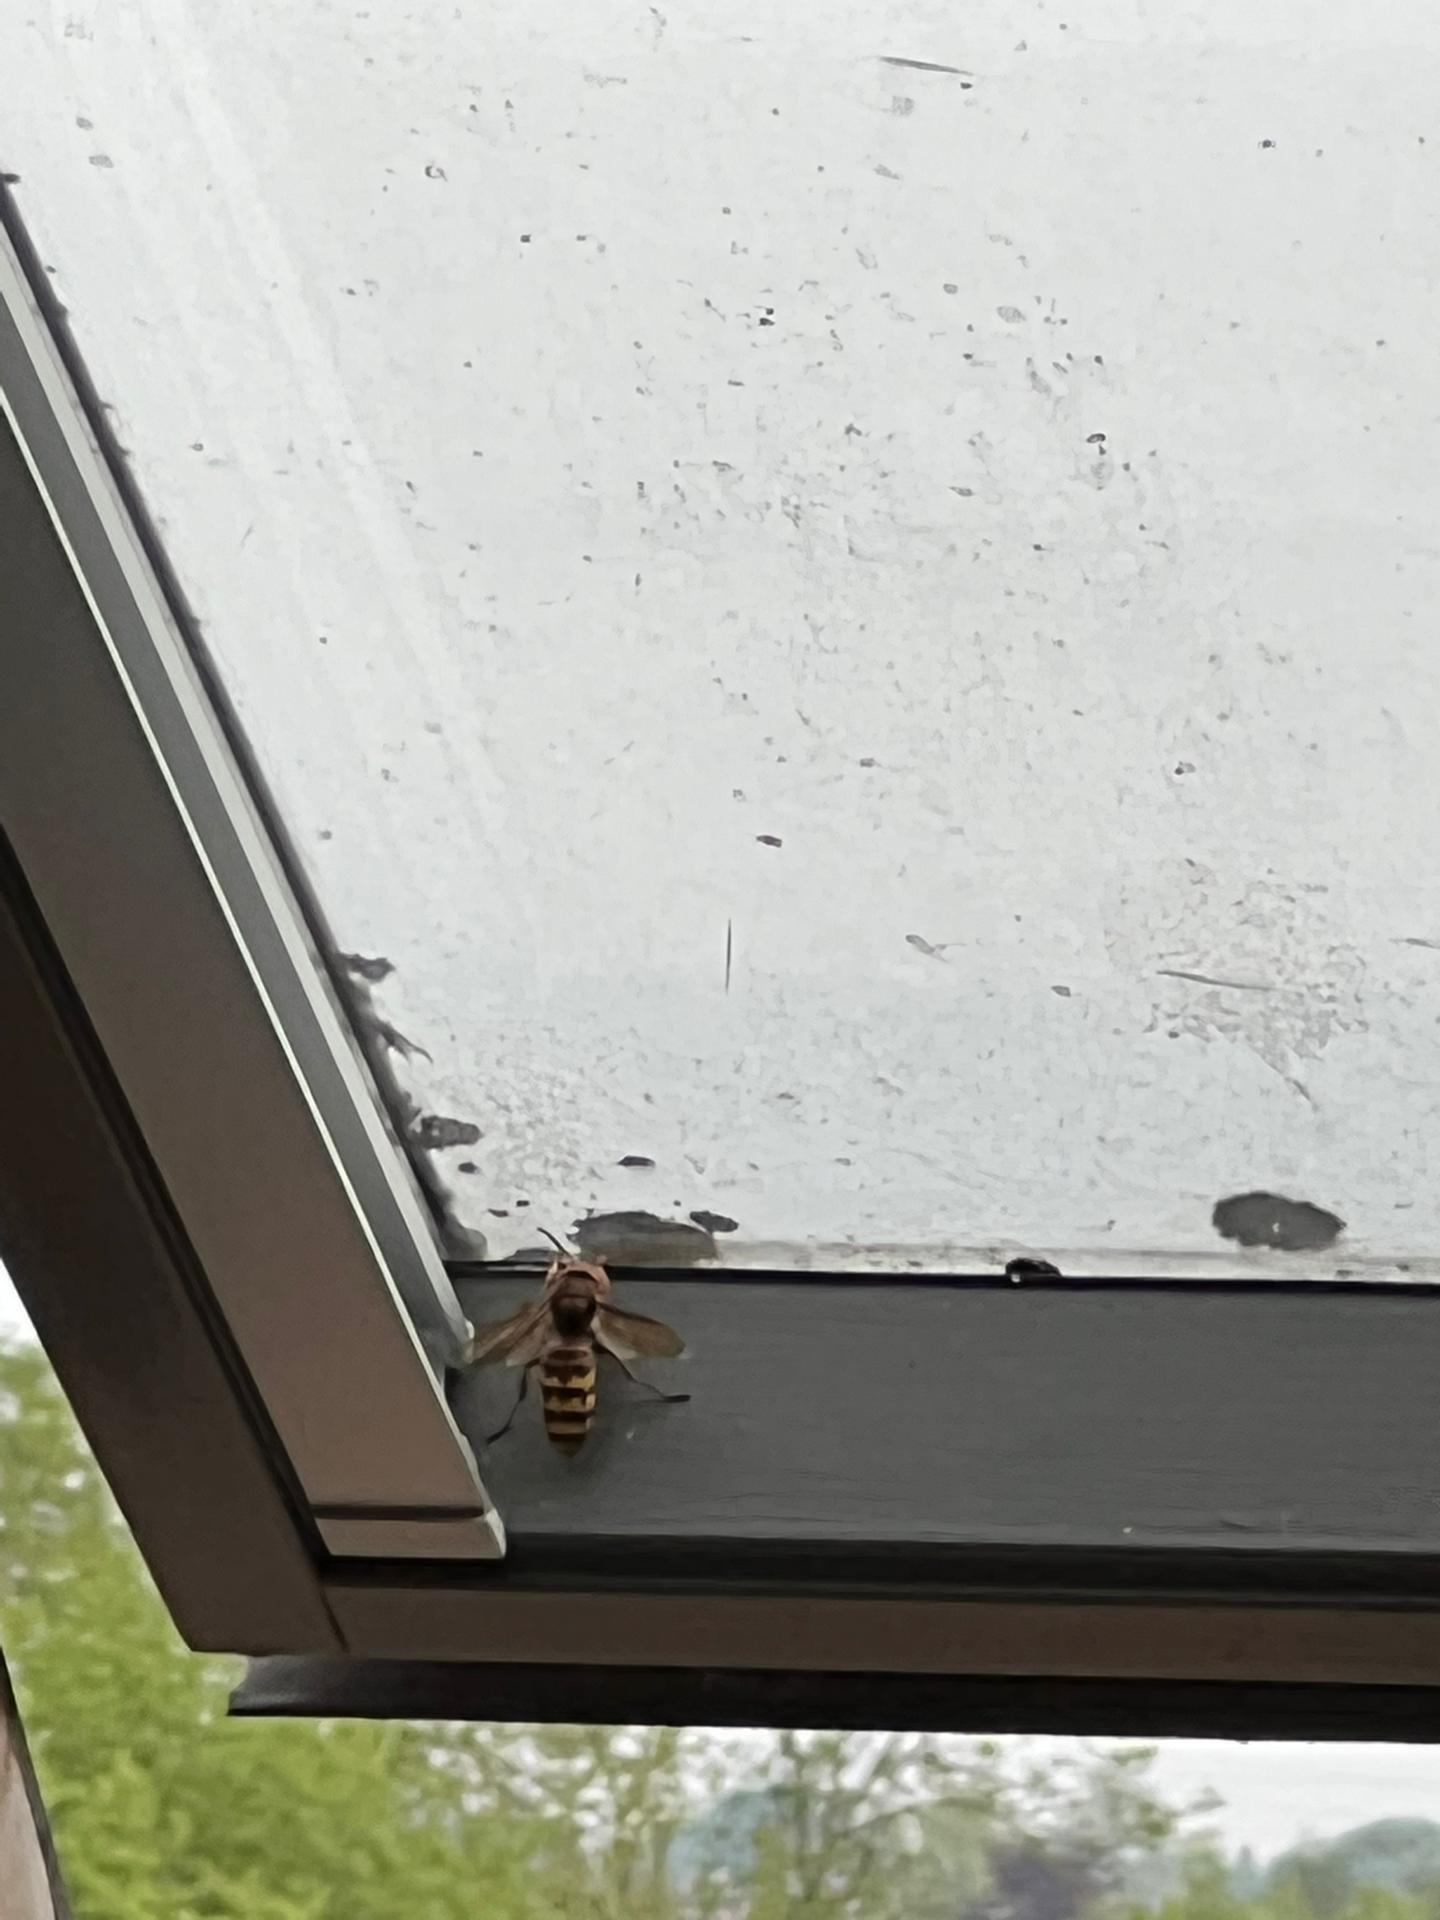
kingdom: Animalia
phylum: Arthropoda
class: Insecta
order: Hymenoptera
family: Vespidae
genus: Vespa
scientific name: Vespa crabro
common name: Hornet
